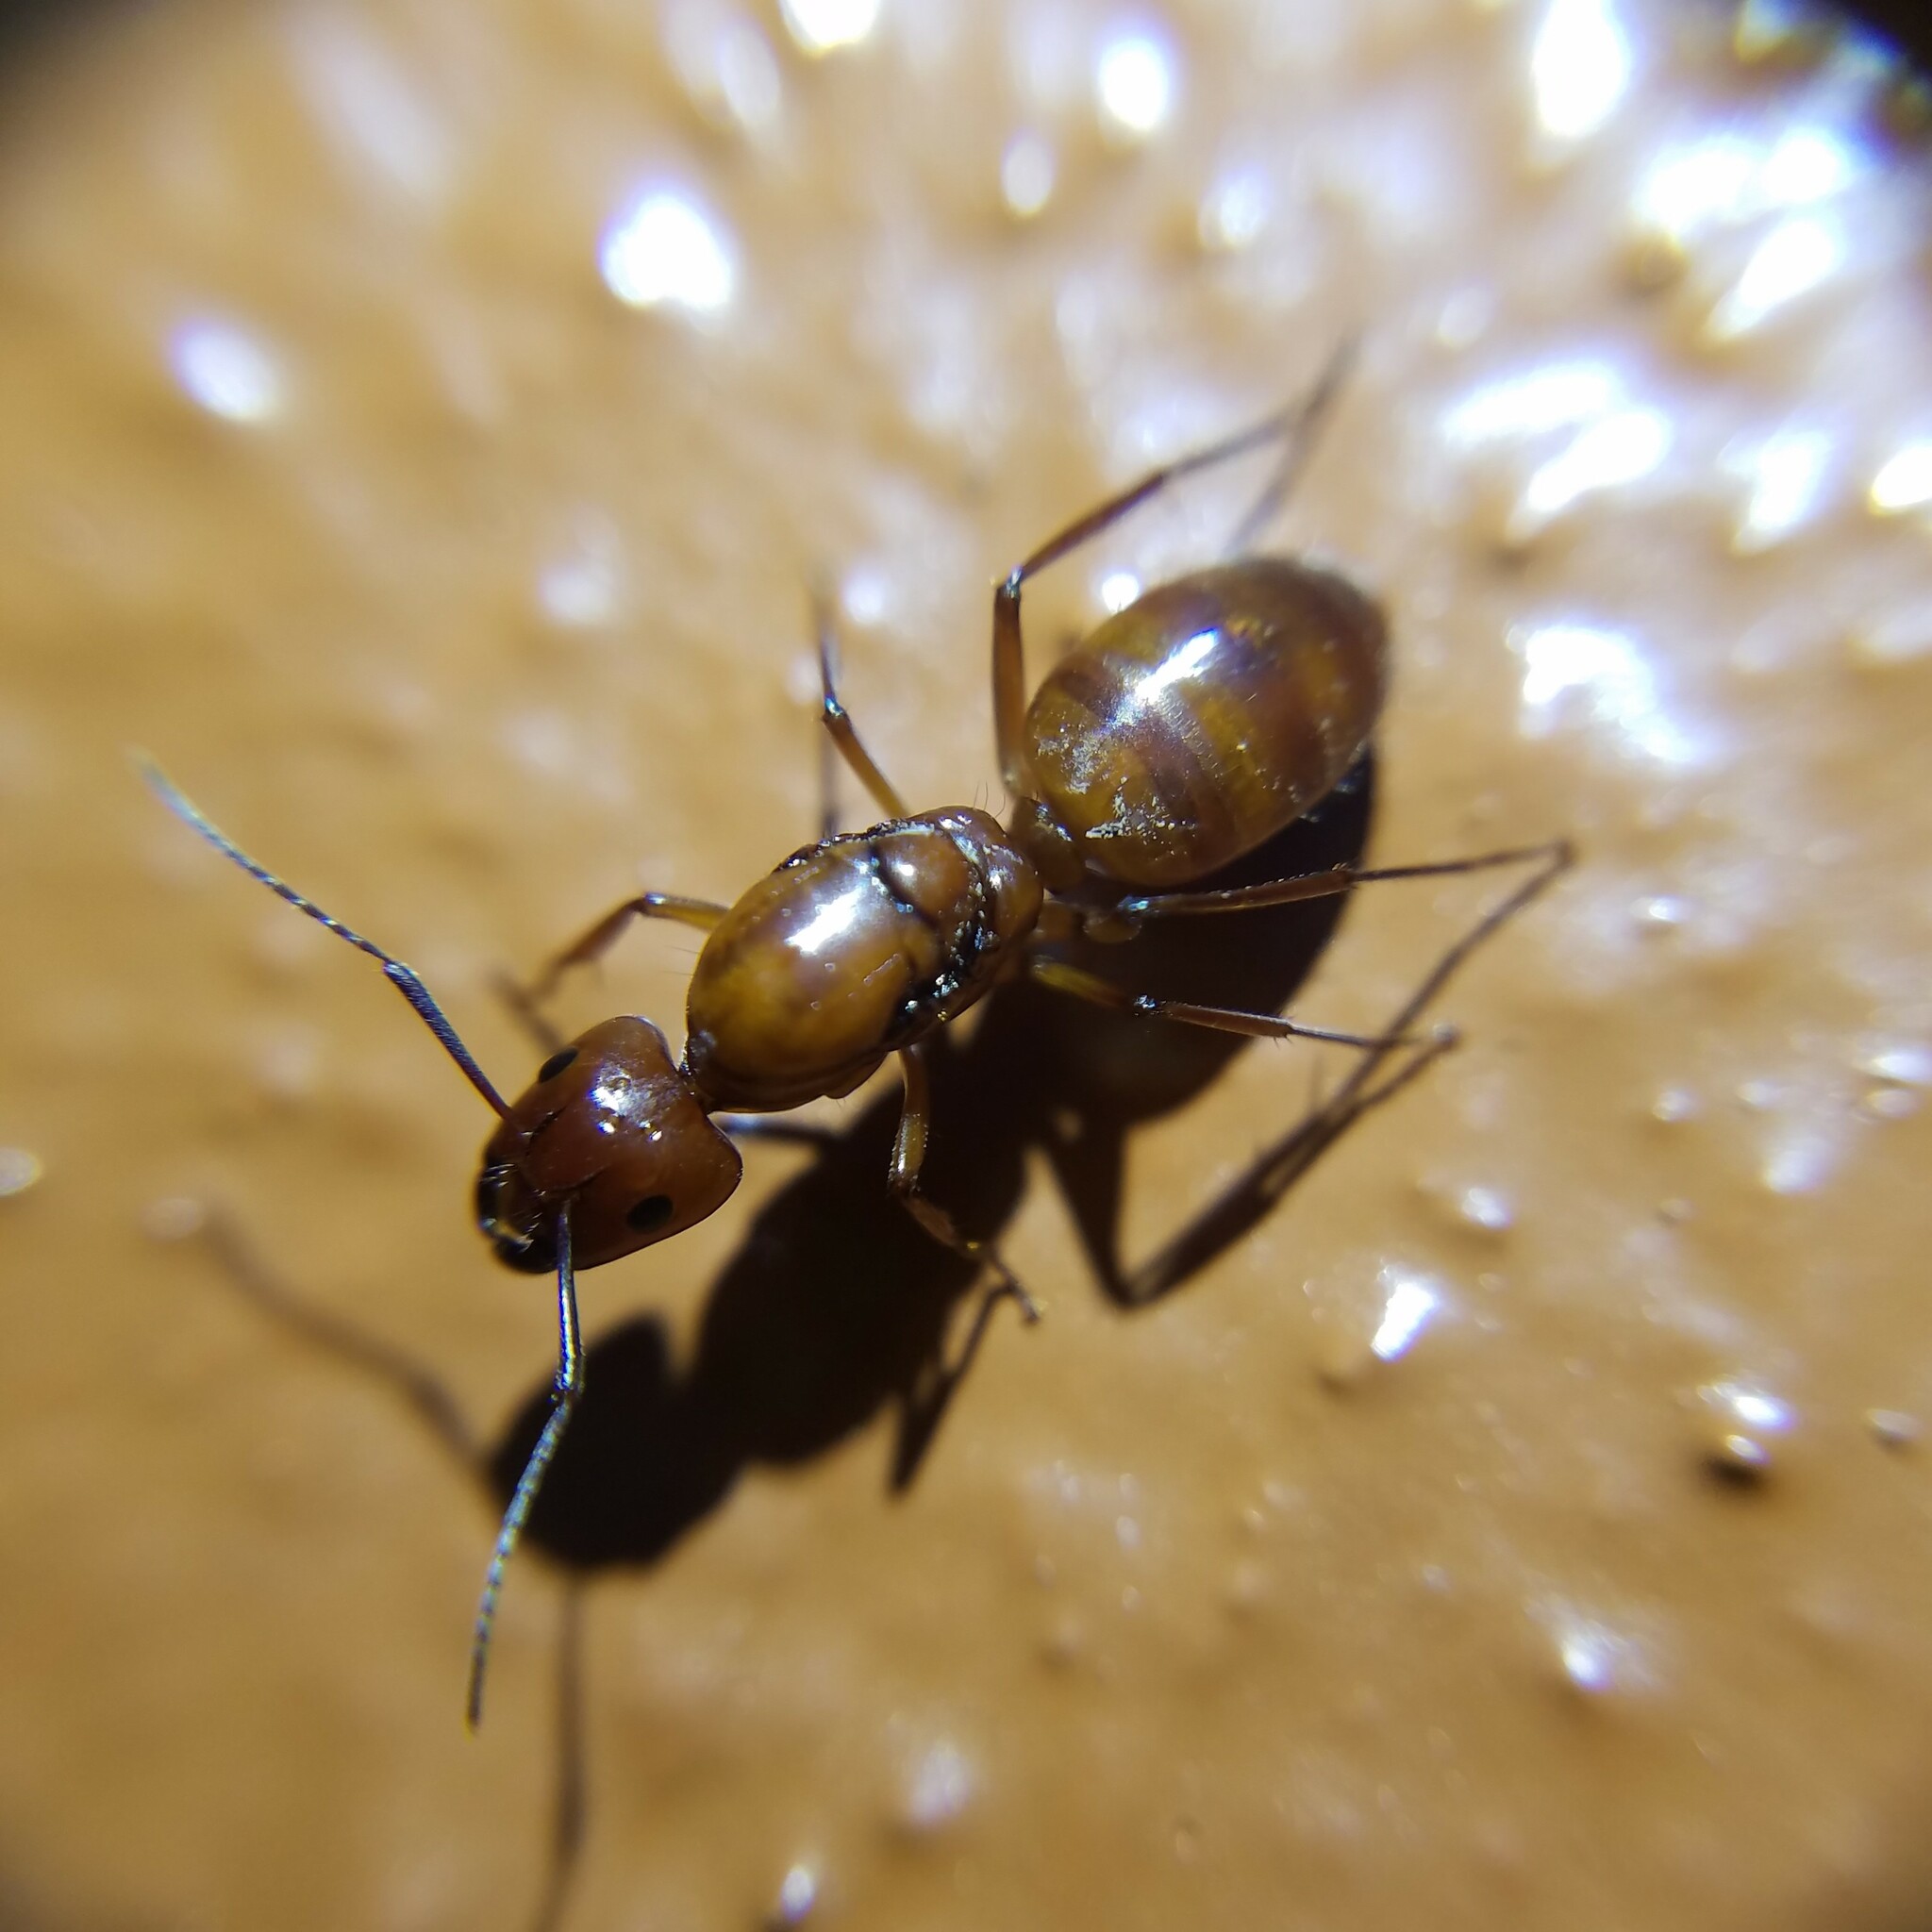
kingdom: Animalia
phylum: Arthropoda
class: Insecta
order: Hymenoptera
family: Formicidae
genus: Camponotus
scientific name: Camponotus castaneus
